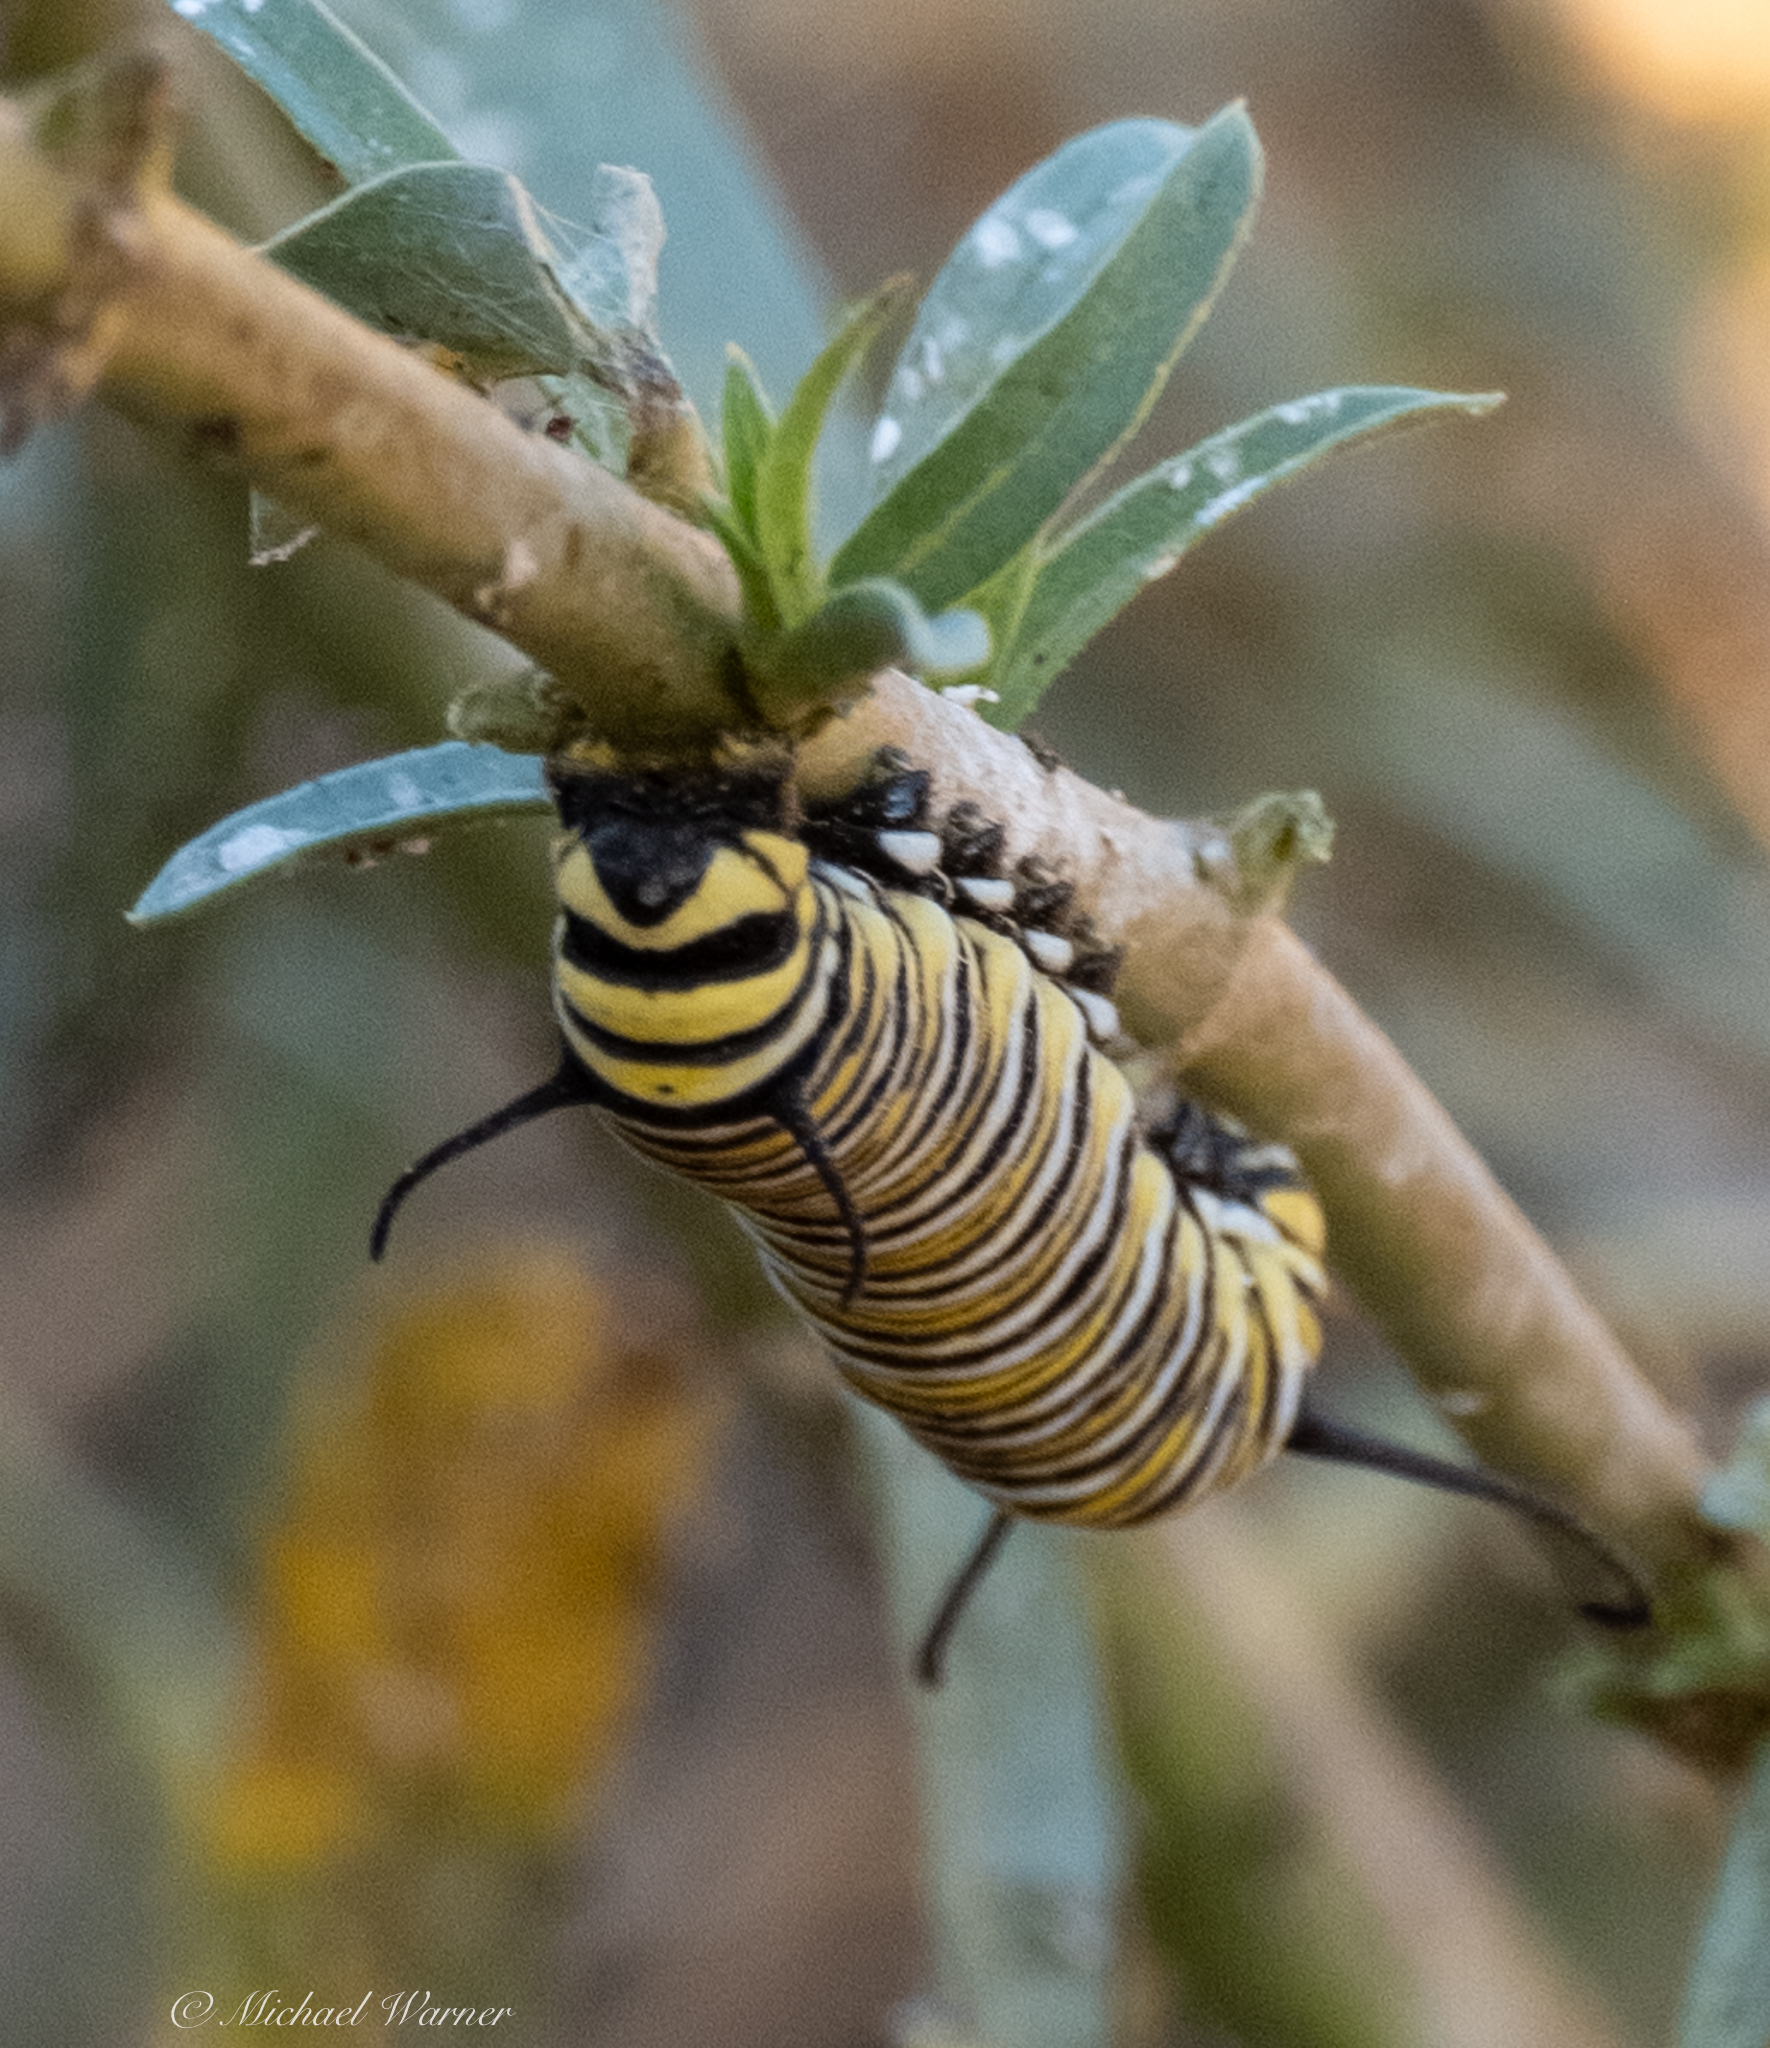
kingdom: Animalia
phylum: Arthropoda
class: Insecta
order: Lepidoptera
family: Nymphalidae
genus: Danaus
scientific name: Danaus plexippus
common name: Monarch
